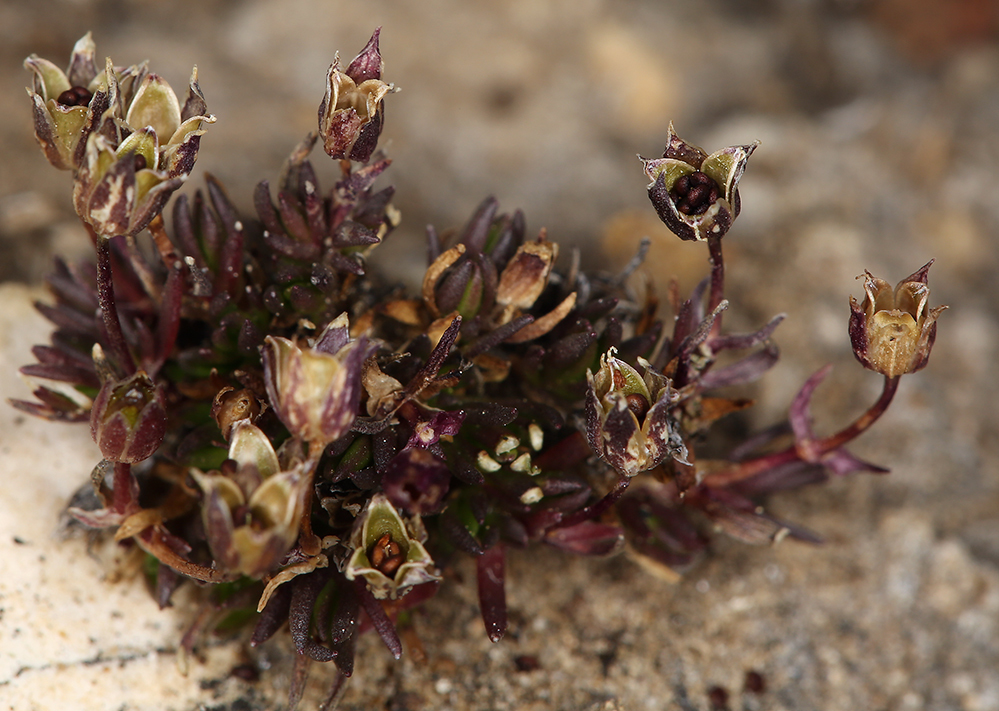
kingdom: Plantae
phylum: Tracheophyta
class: Magnoliopsida
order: Caryophyllales
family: Caryophyllaceae
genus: Sabulina
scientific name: Sabulina rubella
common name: Beautiful sandwort
